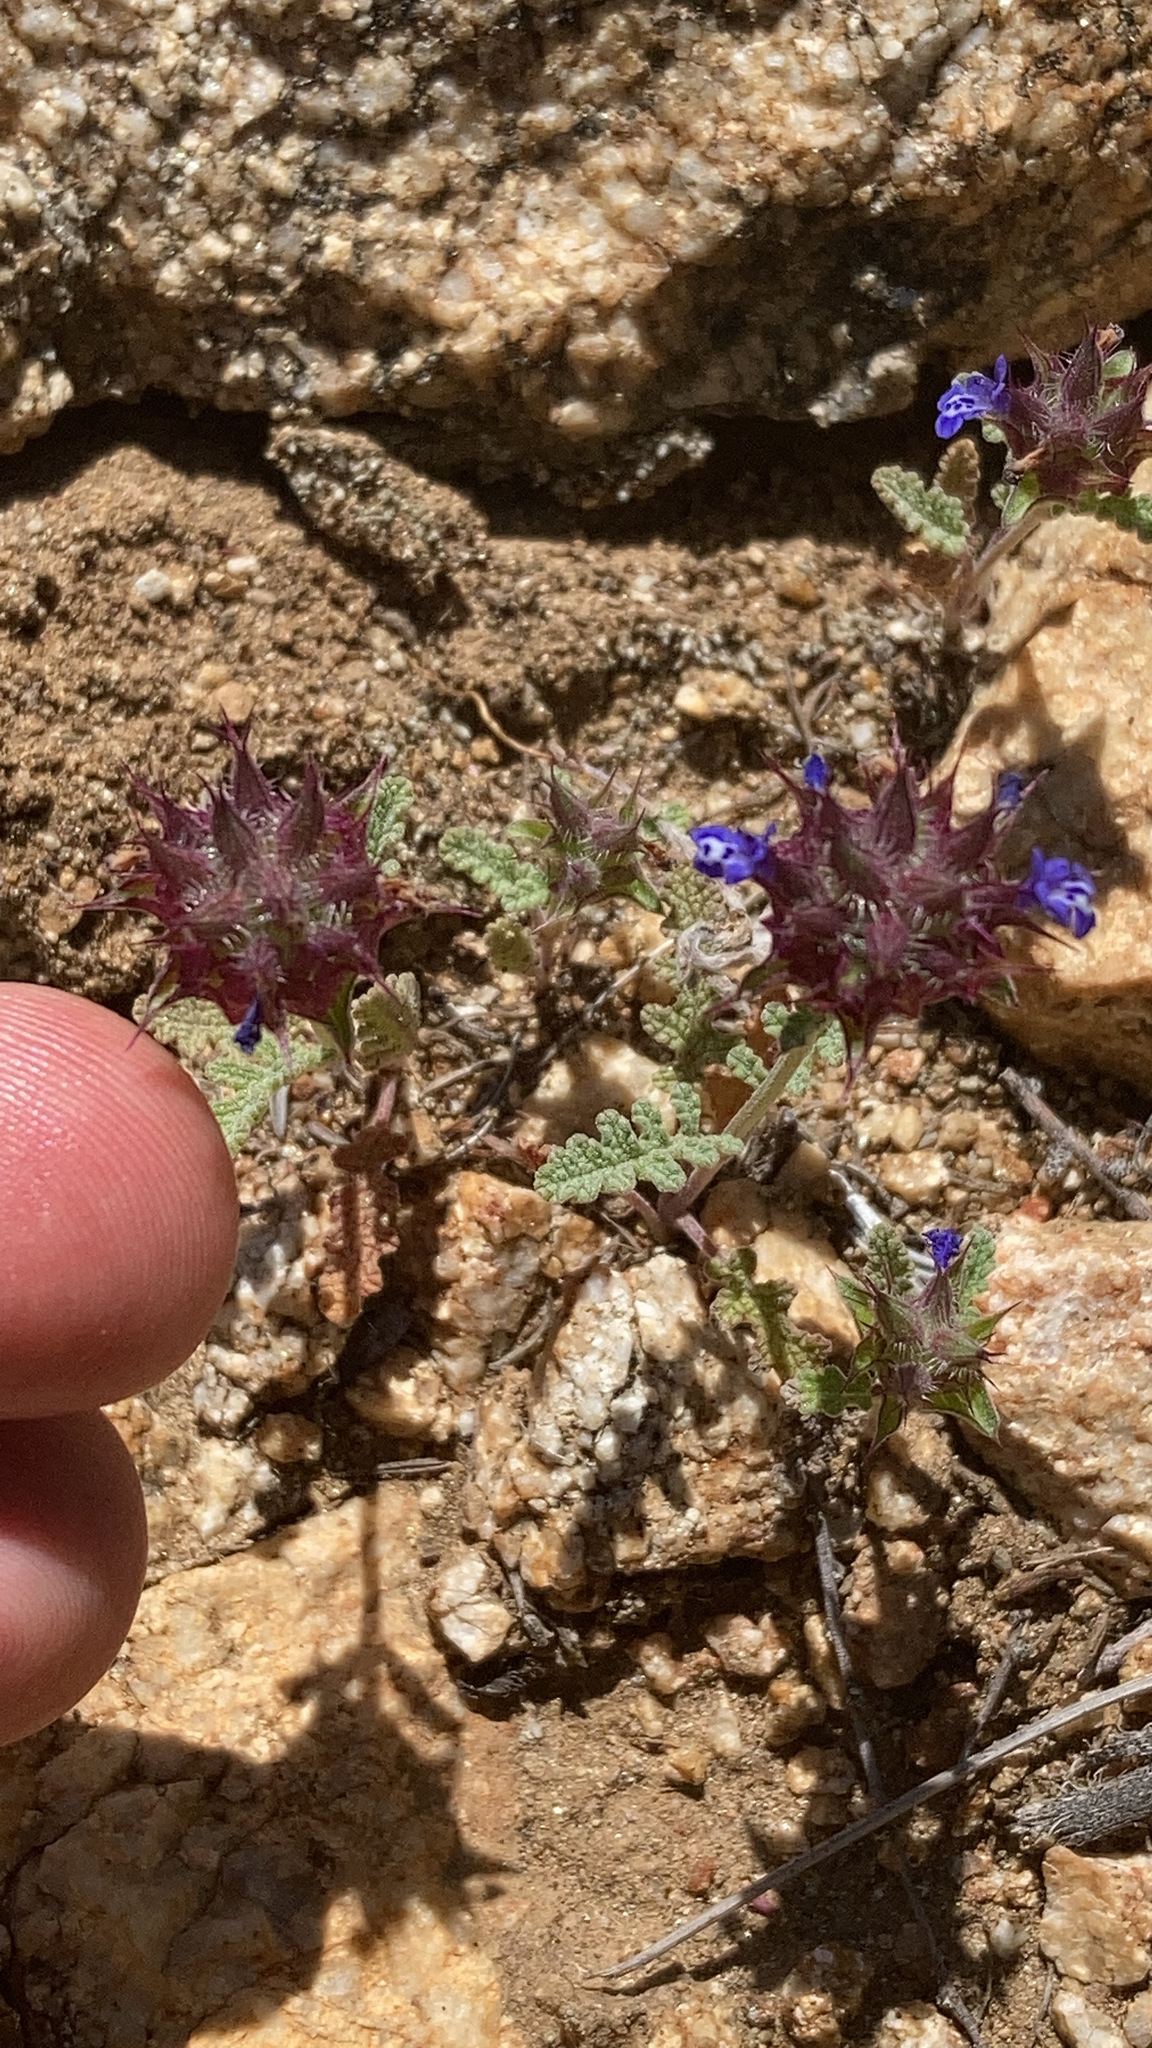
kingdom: Plantae
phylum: Tracheophyta
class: Magnoliopsida
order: Lamiales
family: Lamiaceae
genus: Salvia
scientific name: Salvia columbariae
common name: Chia
